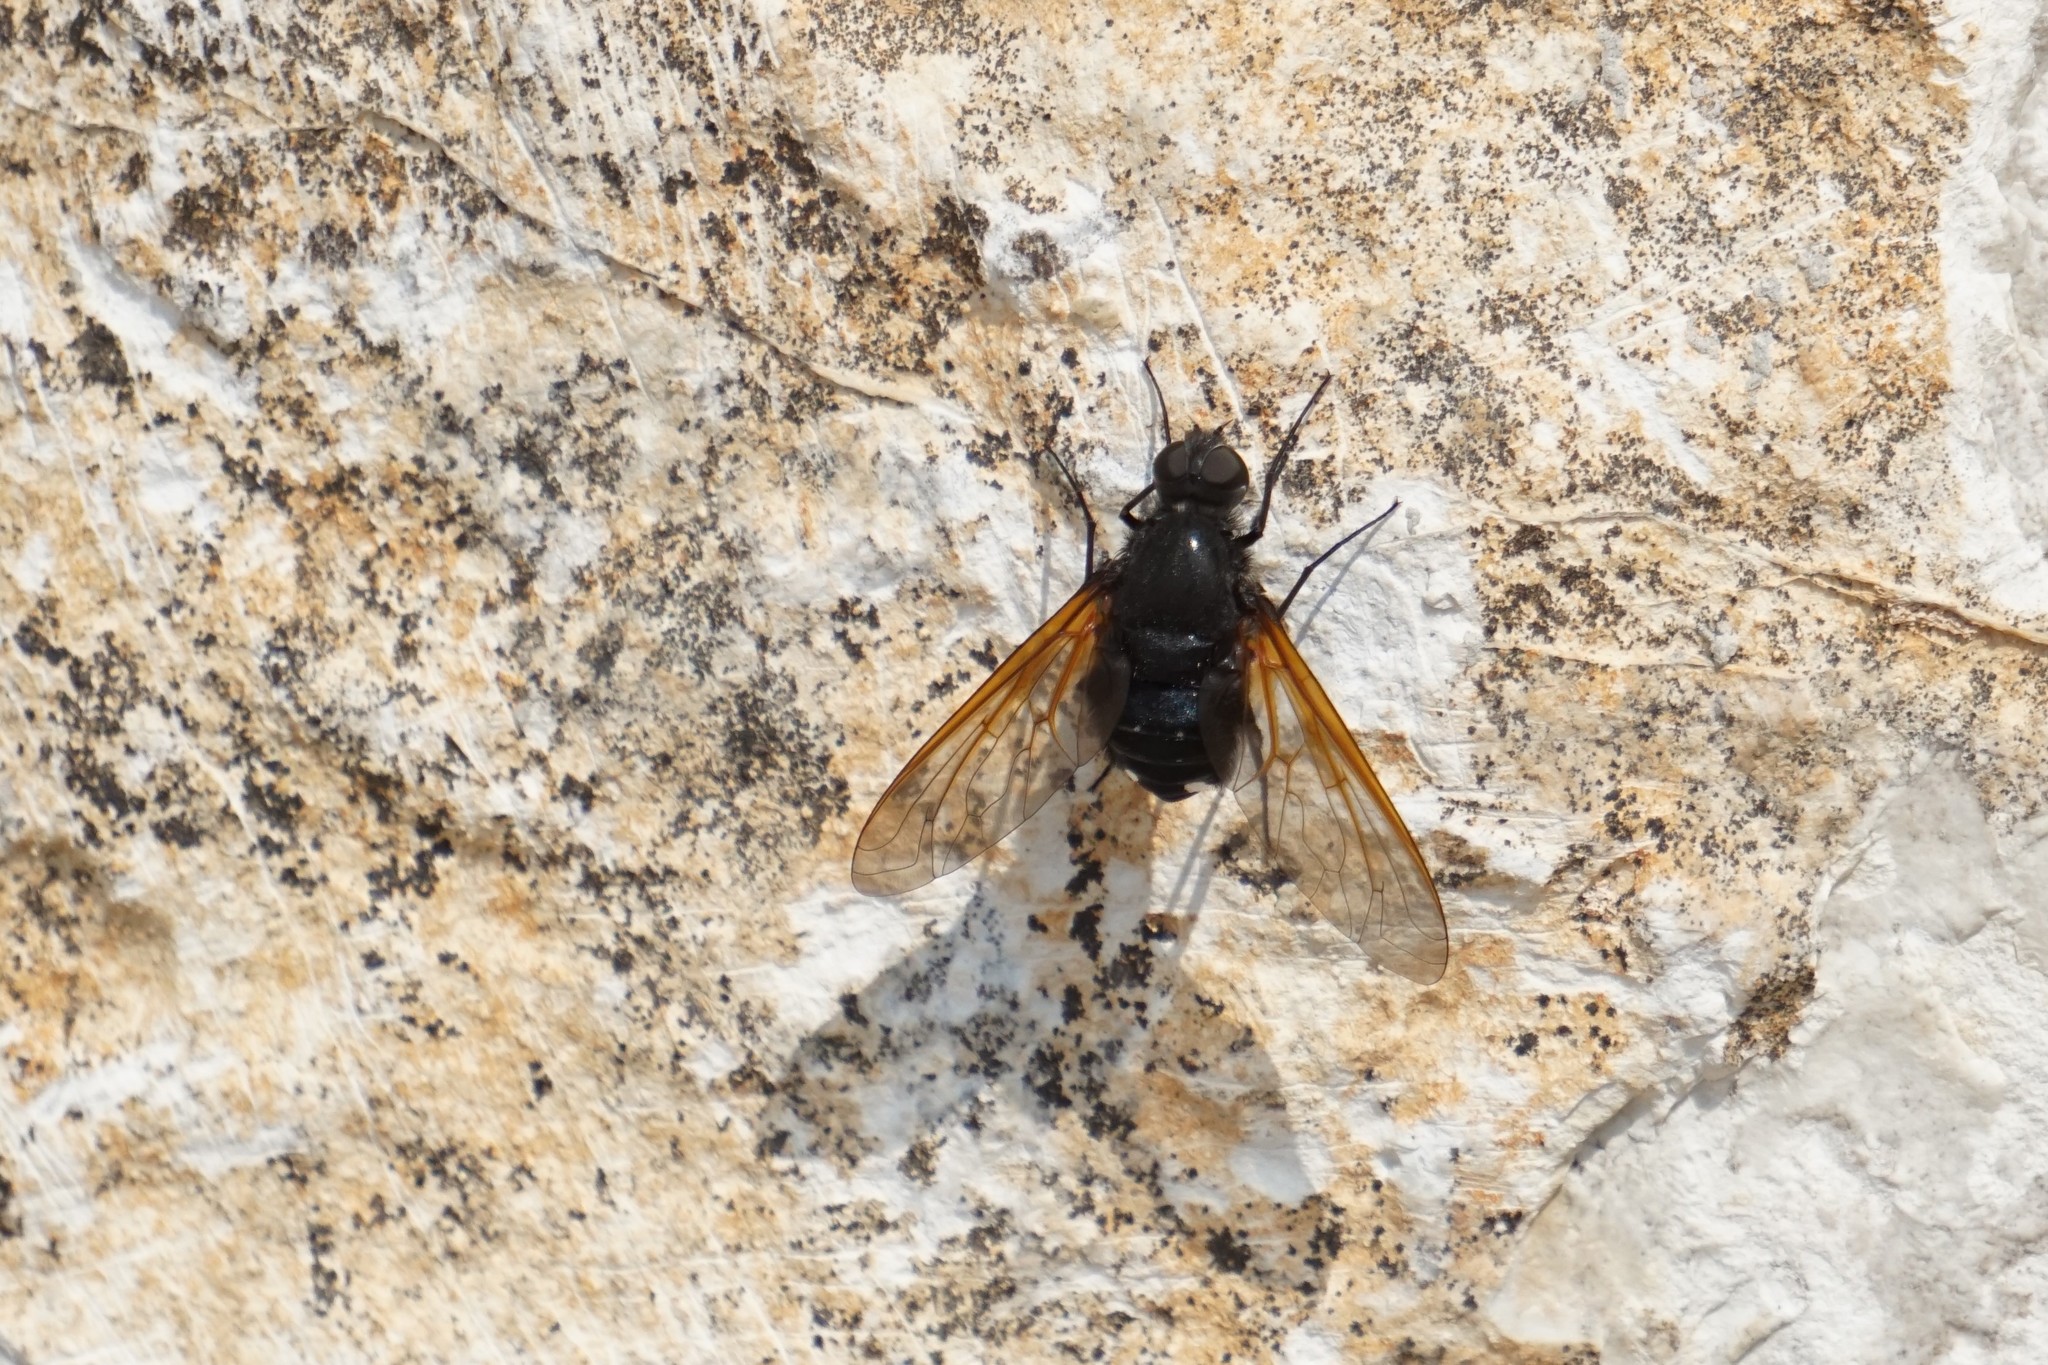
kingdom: Animalia
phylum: Arthropoda
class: Insecta
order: Diptera
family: Bombyliidae
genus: Satyramoeba
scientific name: Satyramoeba hetrusca
